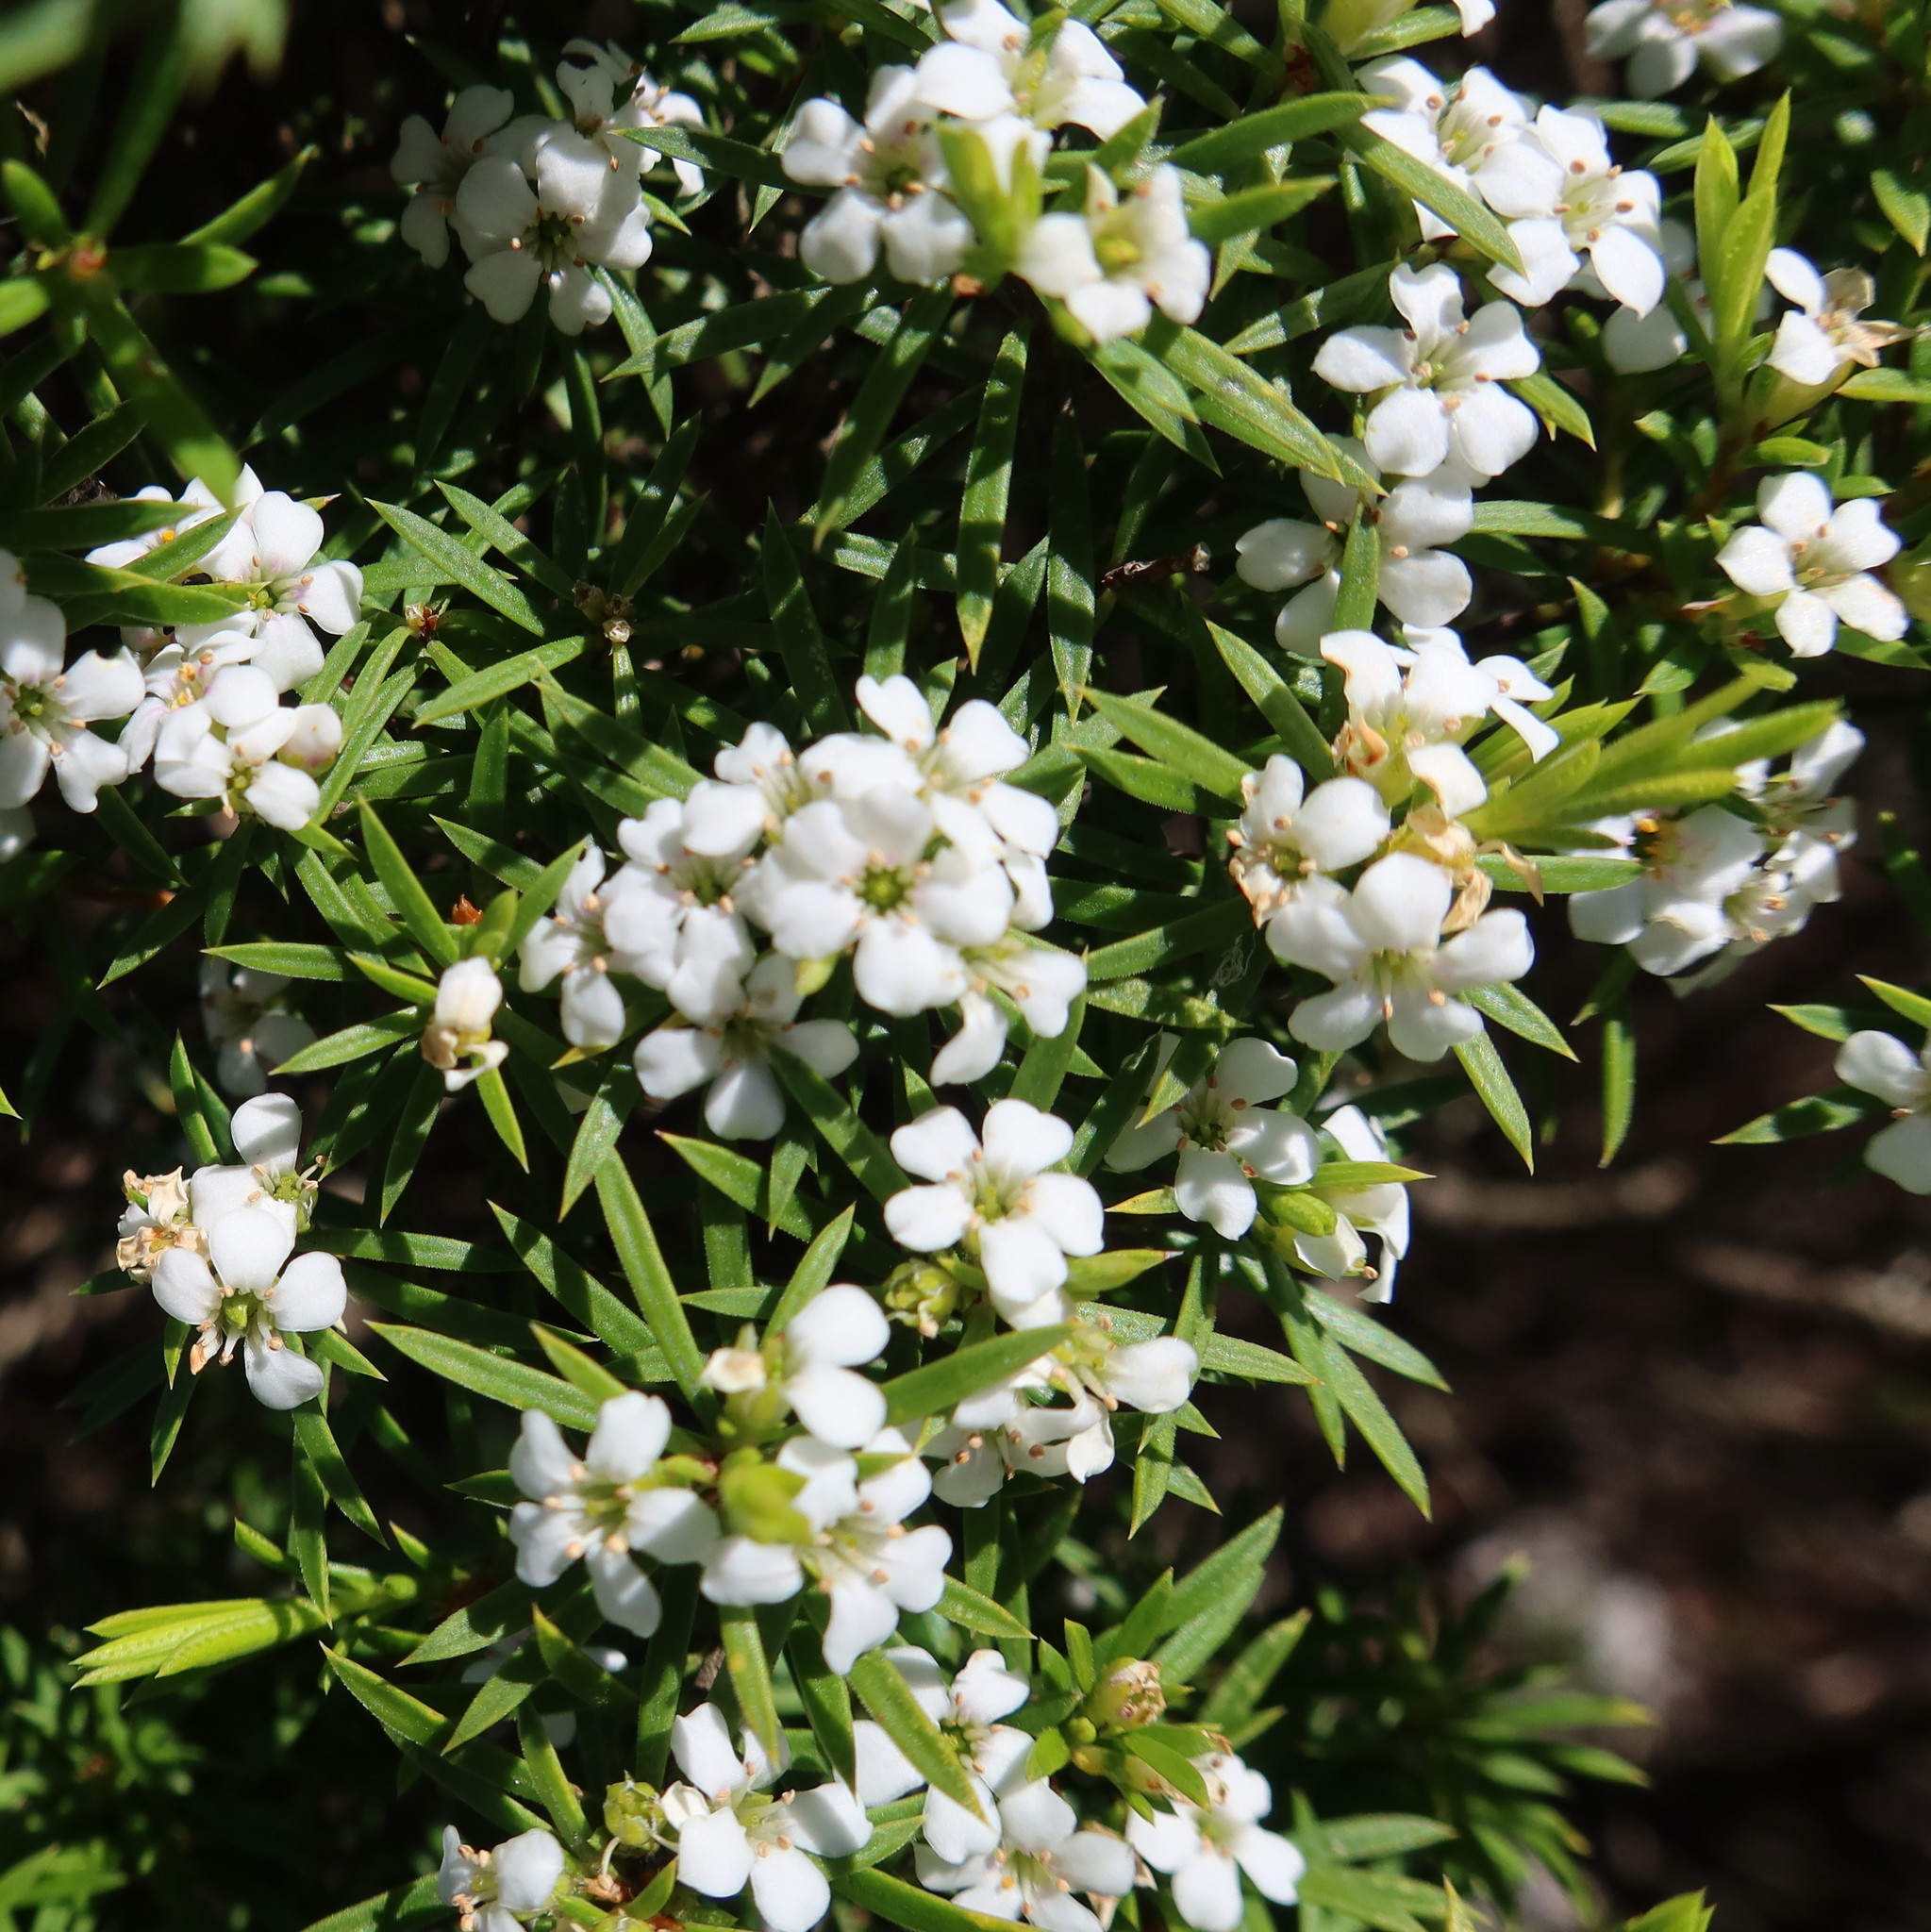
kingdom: Plantae
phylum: Tracheophyta
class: Magnoliopsida
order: Sapindales
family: Rutaceae
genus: Coleonema
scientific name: Coleonema album
